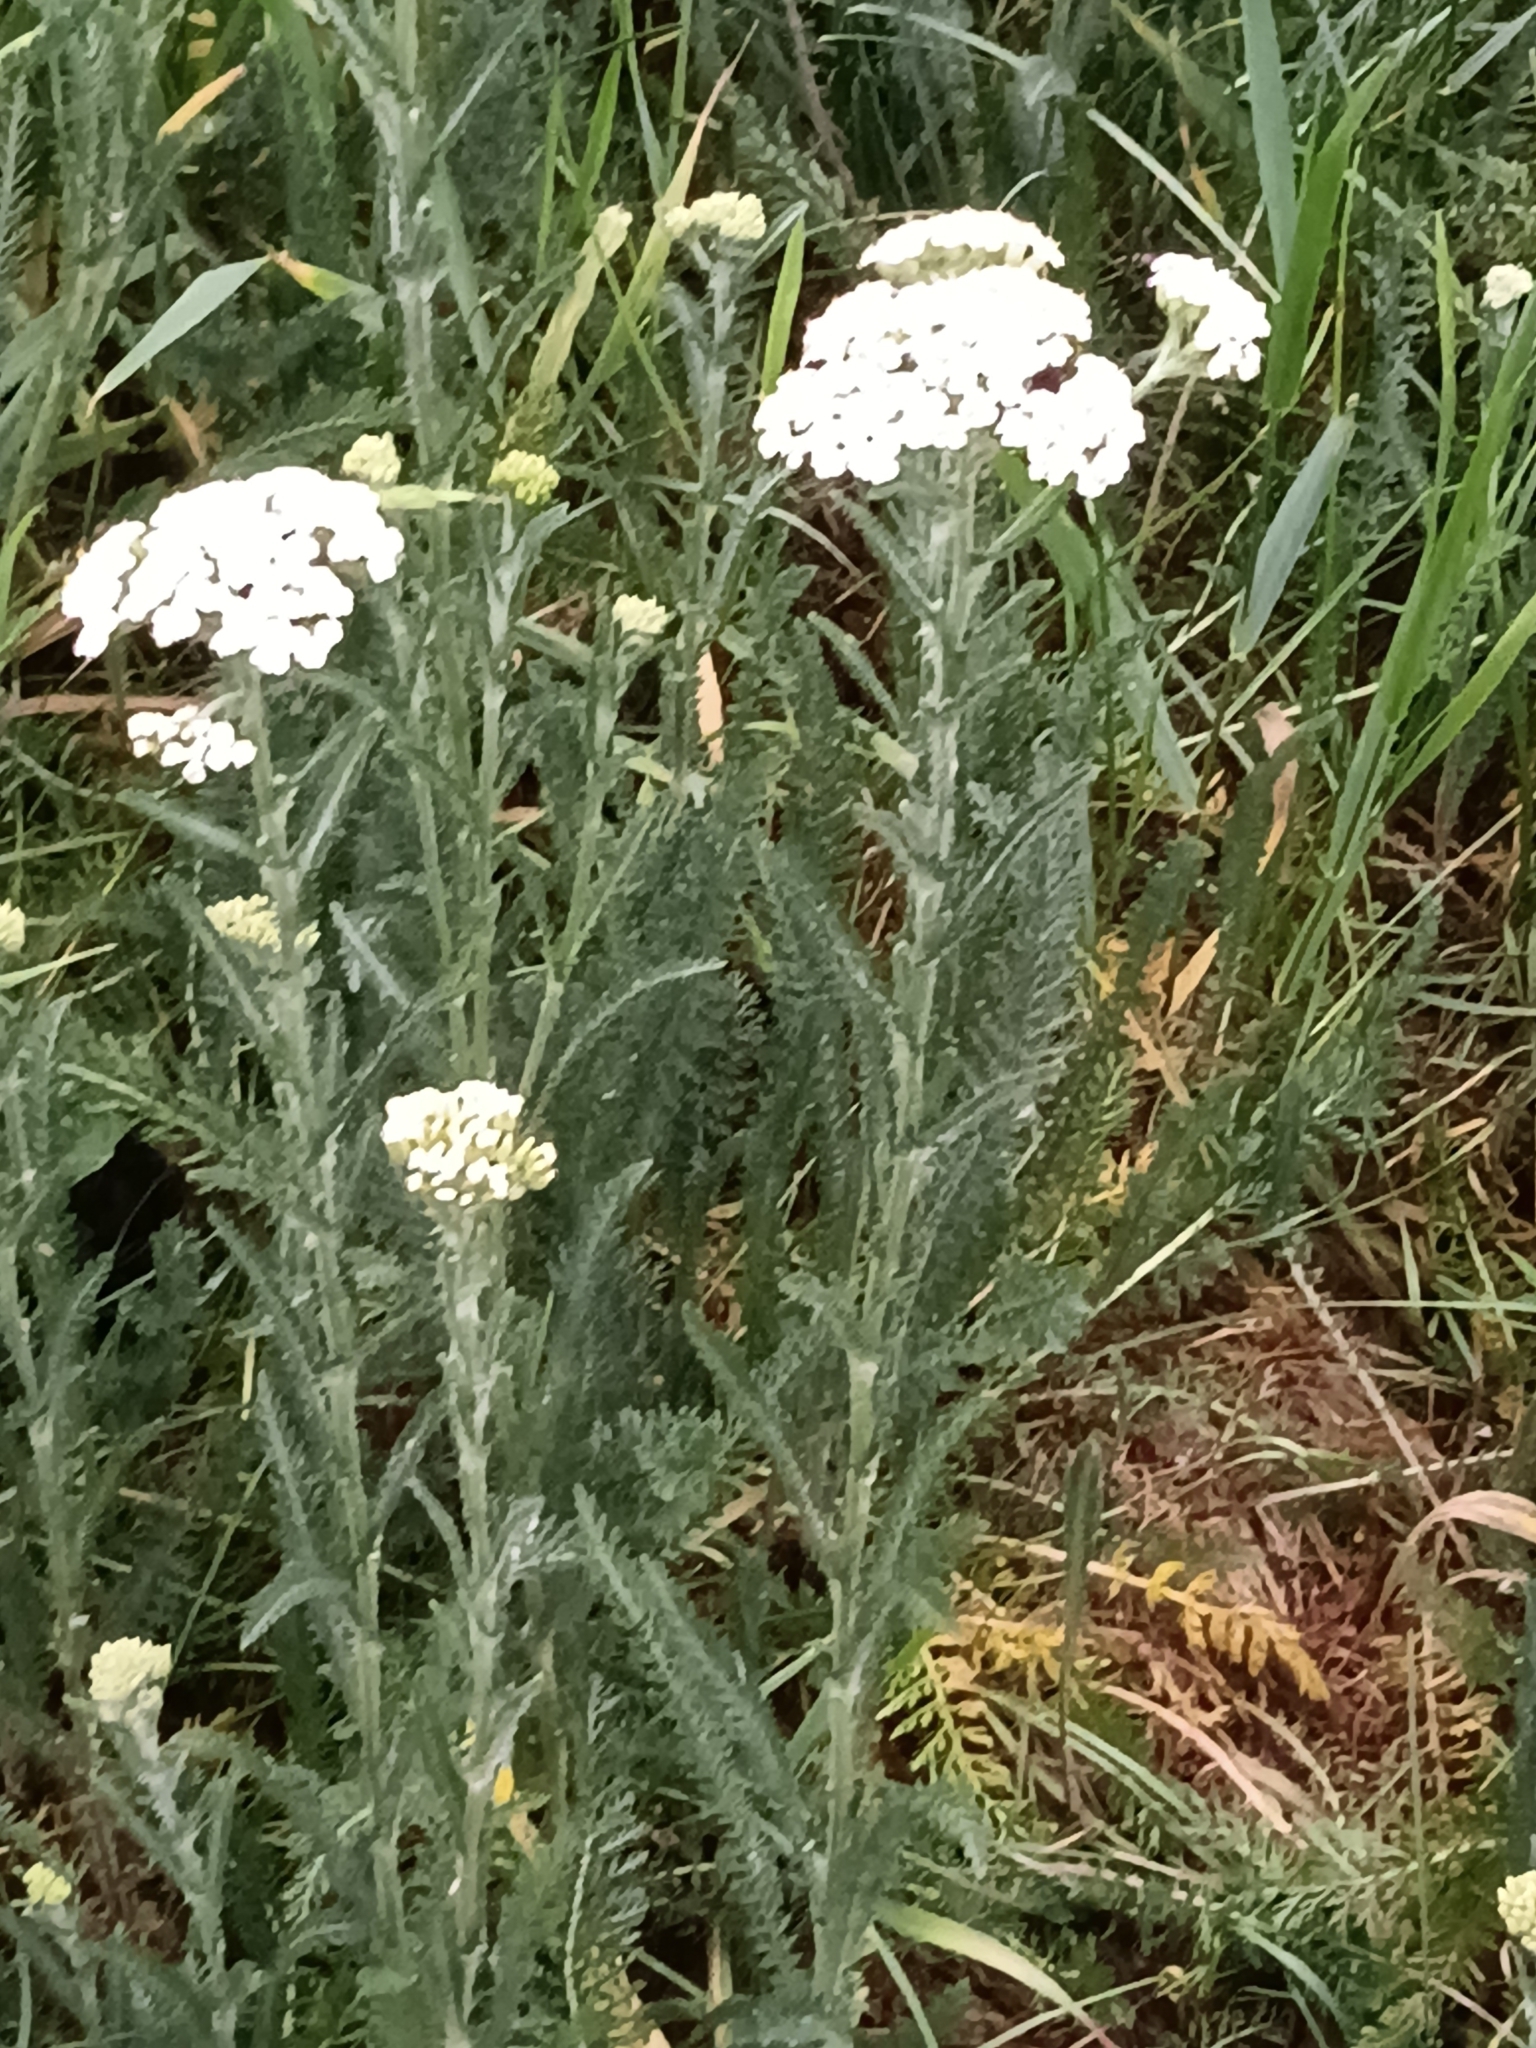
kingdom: Plantae
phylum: Tracheophyta
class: Magnoliopsida
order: Asterales
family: Asteraceae
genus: Achillea
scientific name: Achillea millefolium
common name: Yarrow
